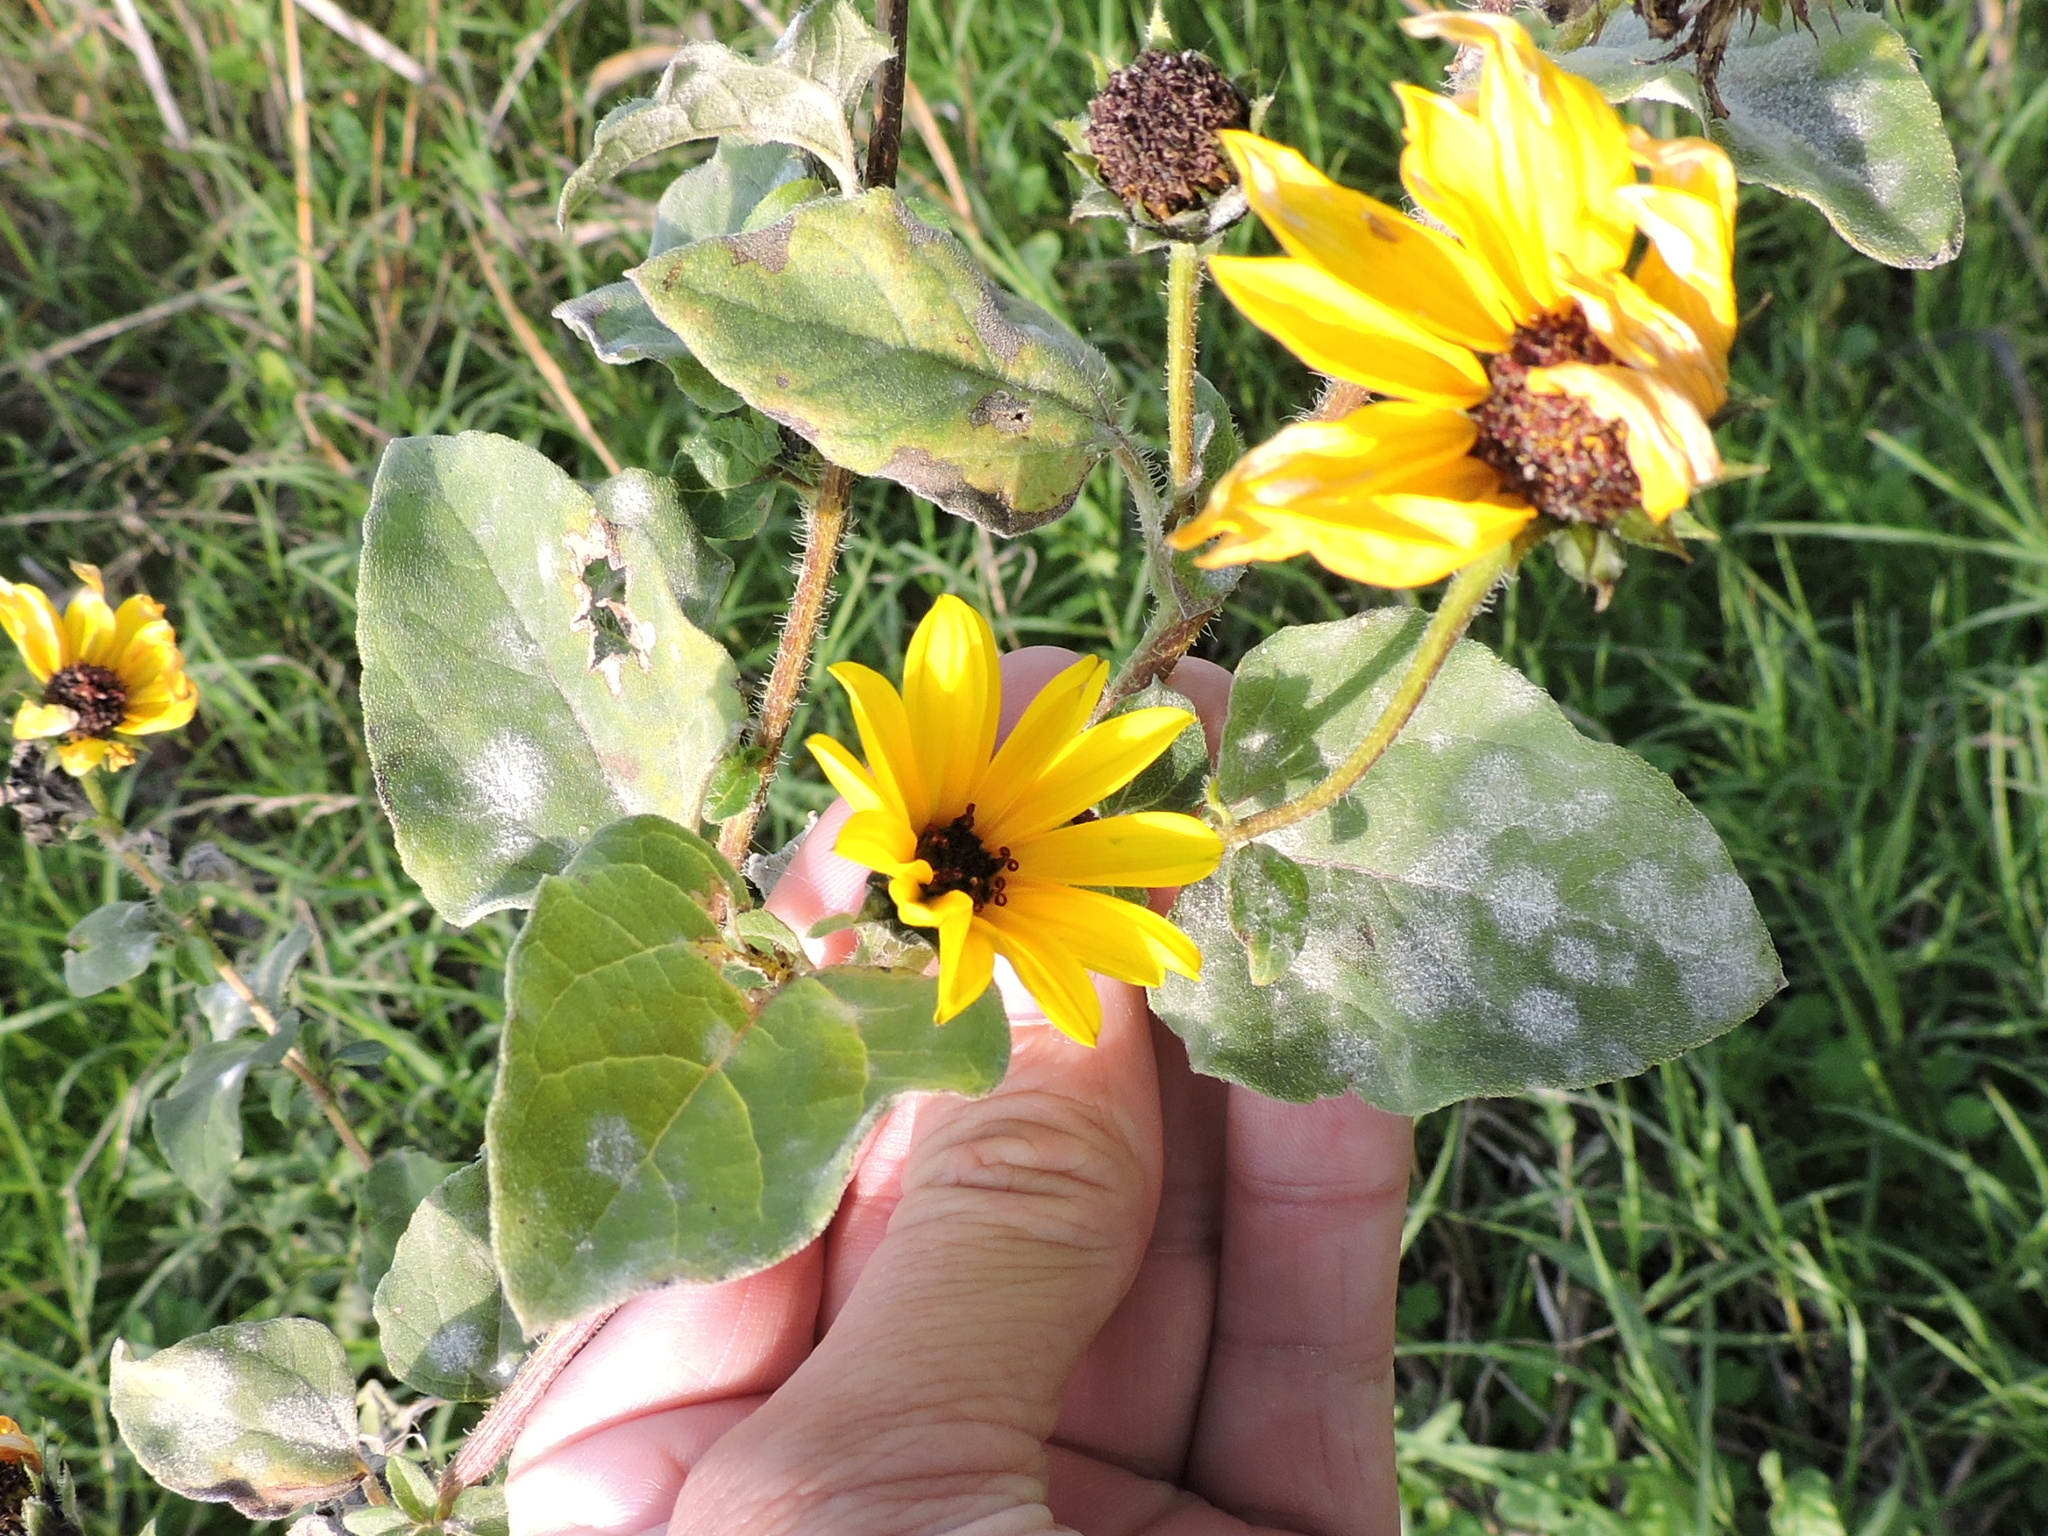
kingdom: Plantae
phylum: Tracheophyta
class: Magnoliopsida
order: Asterales
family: Asteraceae
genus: Helianthus
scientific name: Helianthus annuus
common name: Sunflower
